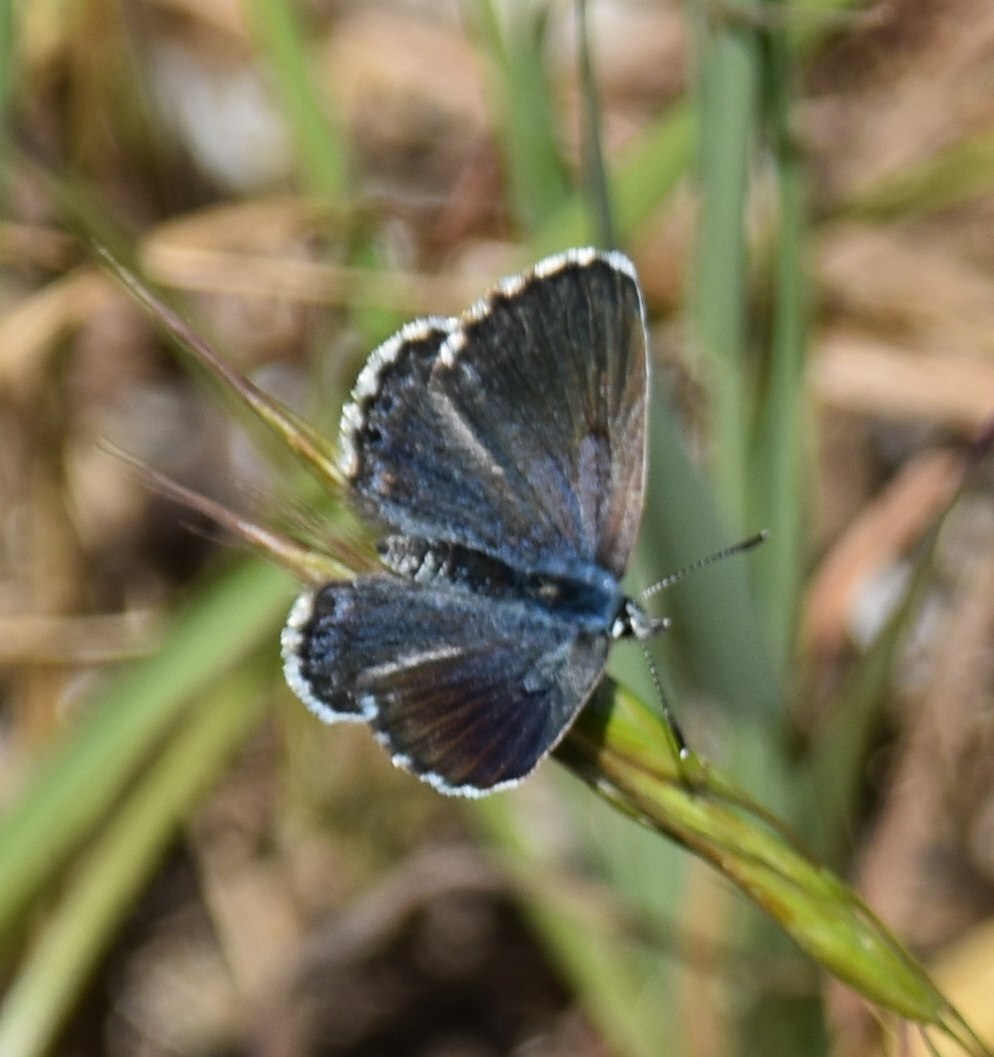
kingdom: Animalia
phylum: Arthropoda
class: Insecta
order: Lepidoptera
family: Lycaenidae
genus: Pseudophilotes
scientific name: Pseudophilotes baton
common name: Baton blue
